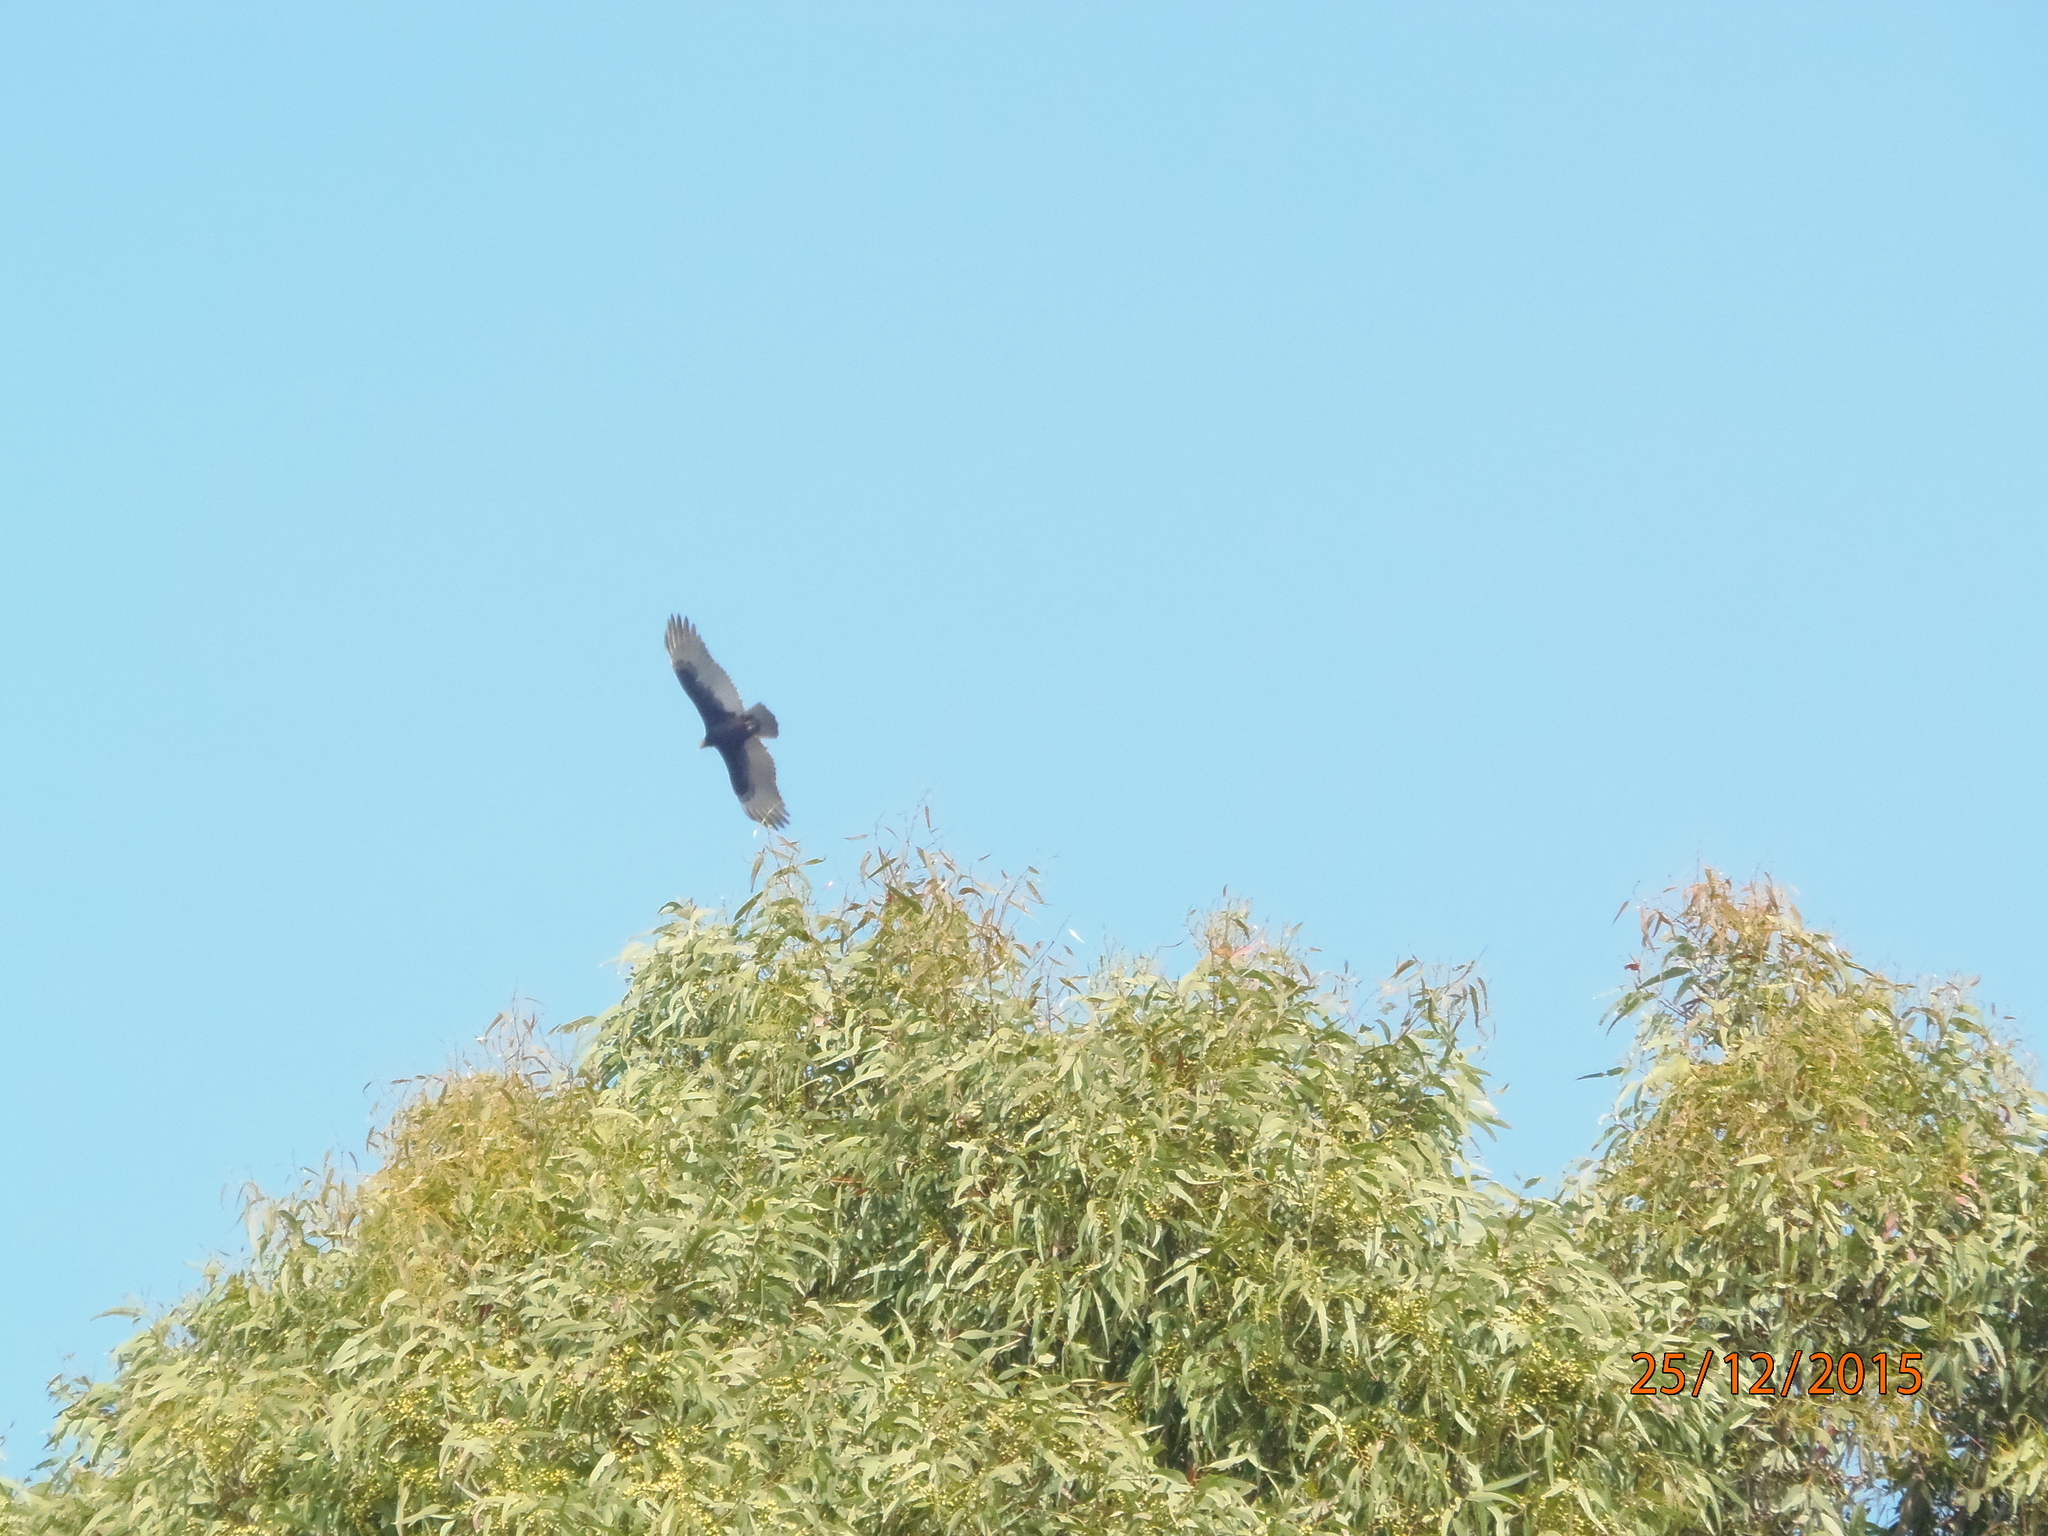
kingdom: Animalia
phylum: Chordata
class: Aves
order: Accipitriformes
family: Cathartidae
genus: Cathartes
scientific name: Cathartes aura
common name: Turkey vulture
